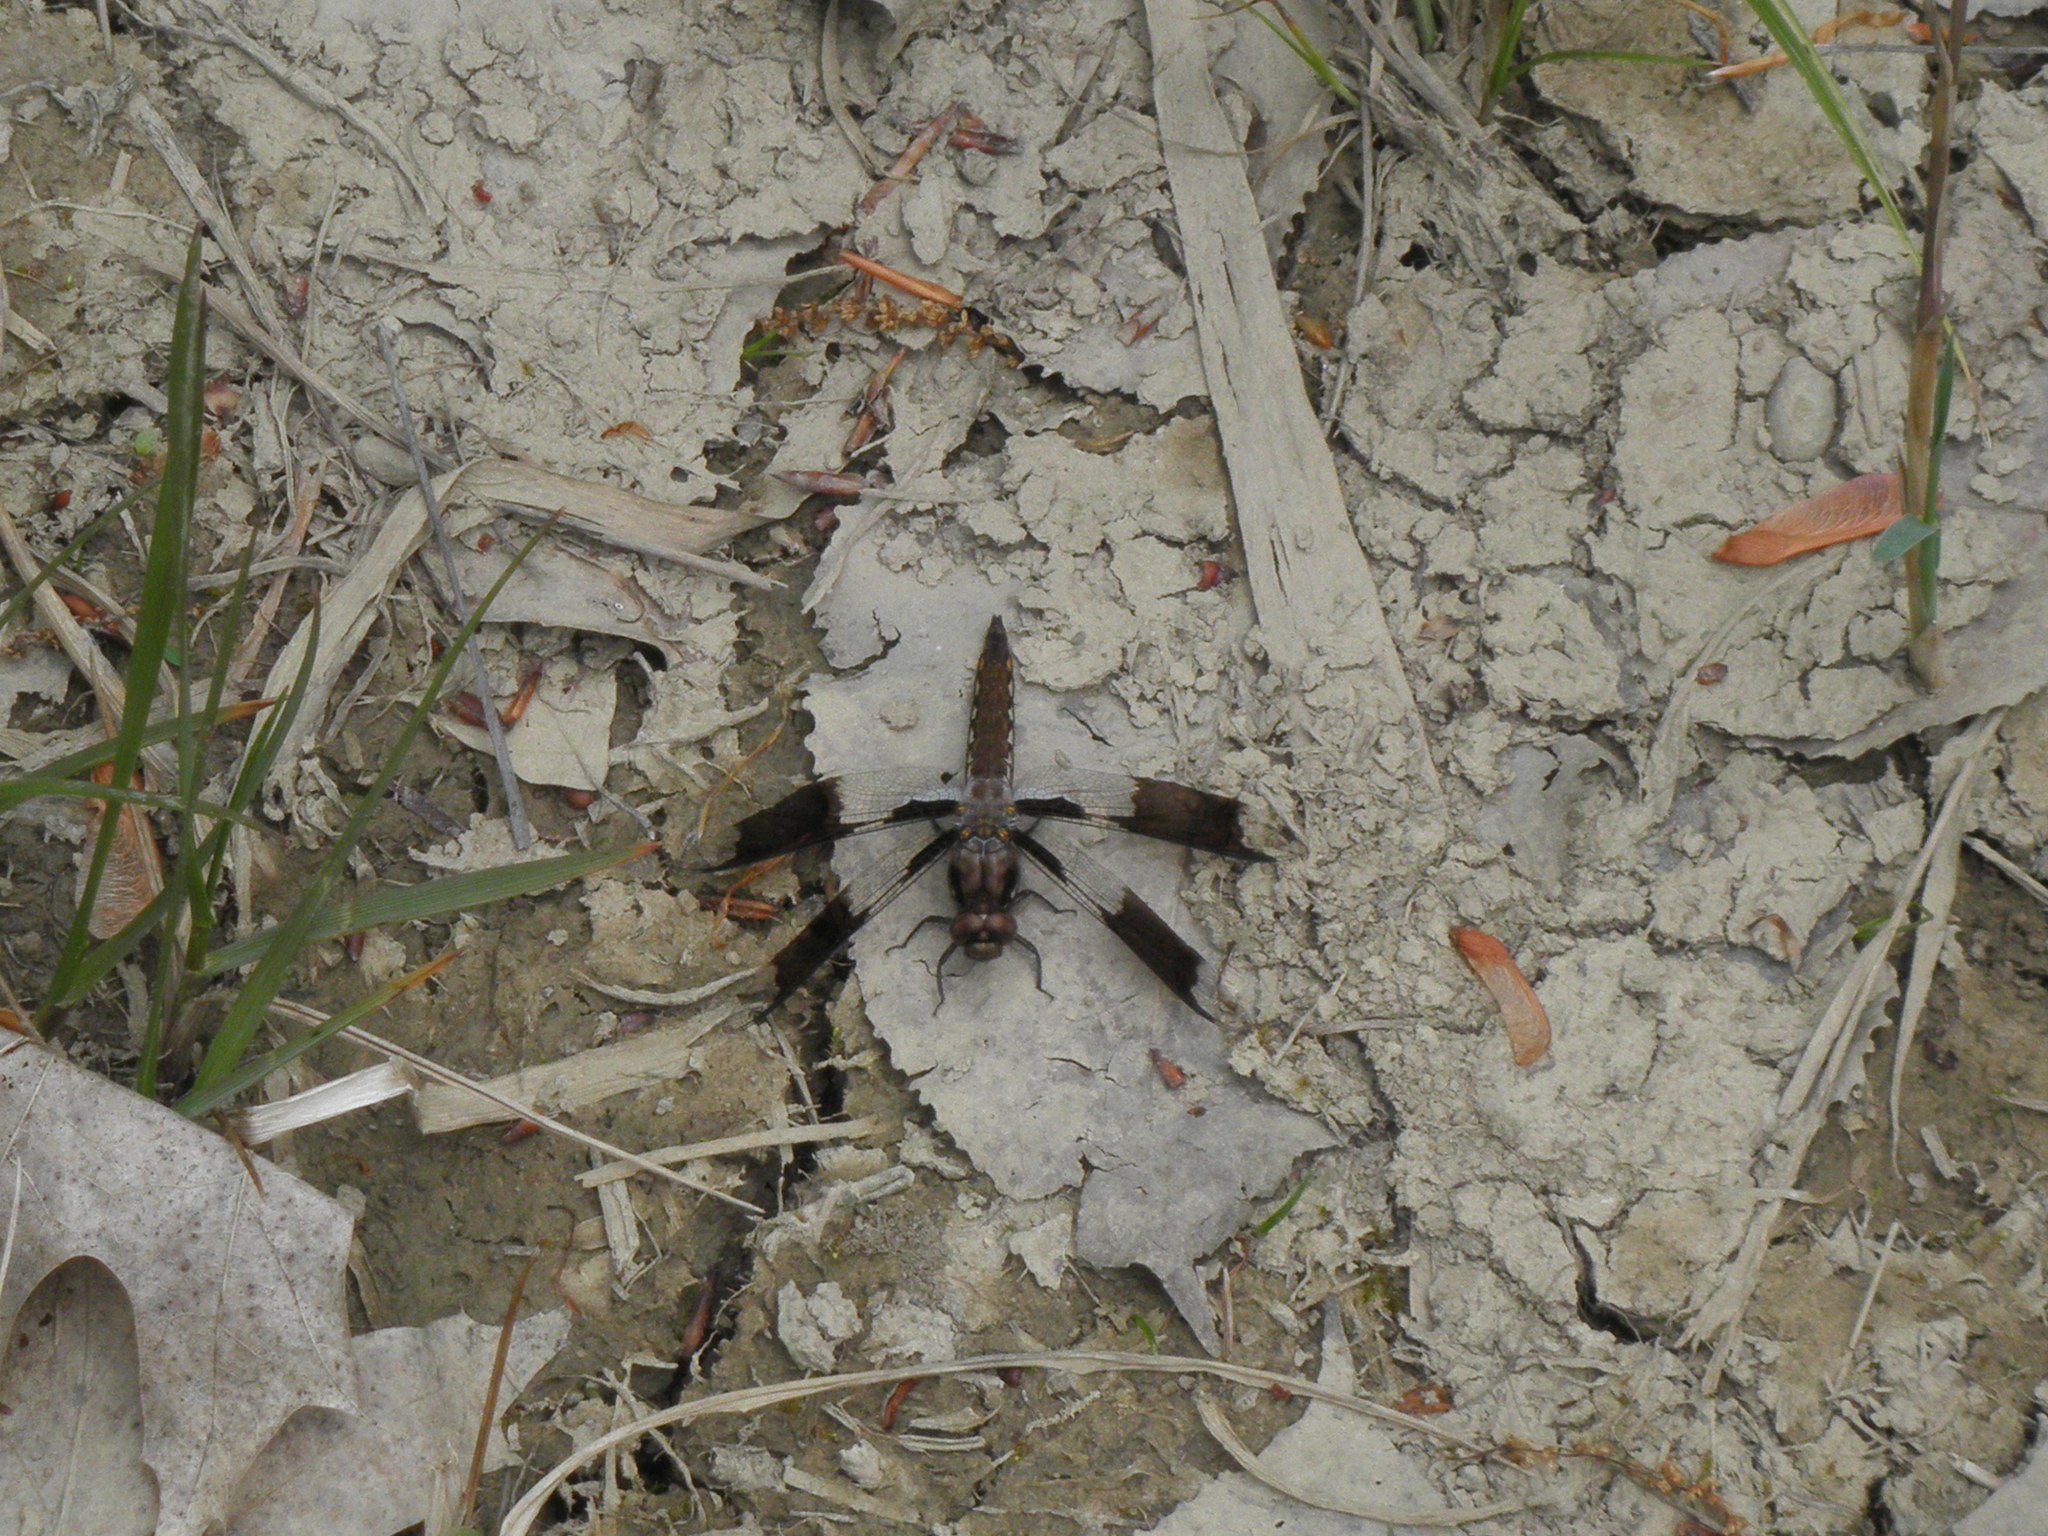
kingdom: Animalia
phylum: Arthropoda
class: Insecta
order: Odonata
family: Libellulidae
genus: Plathemis
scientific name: Plathemis lydia
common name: Common whitetail
